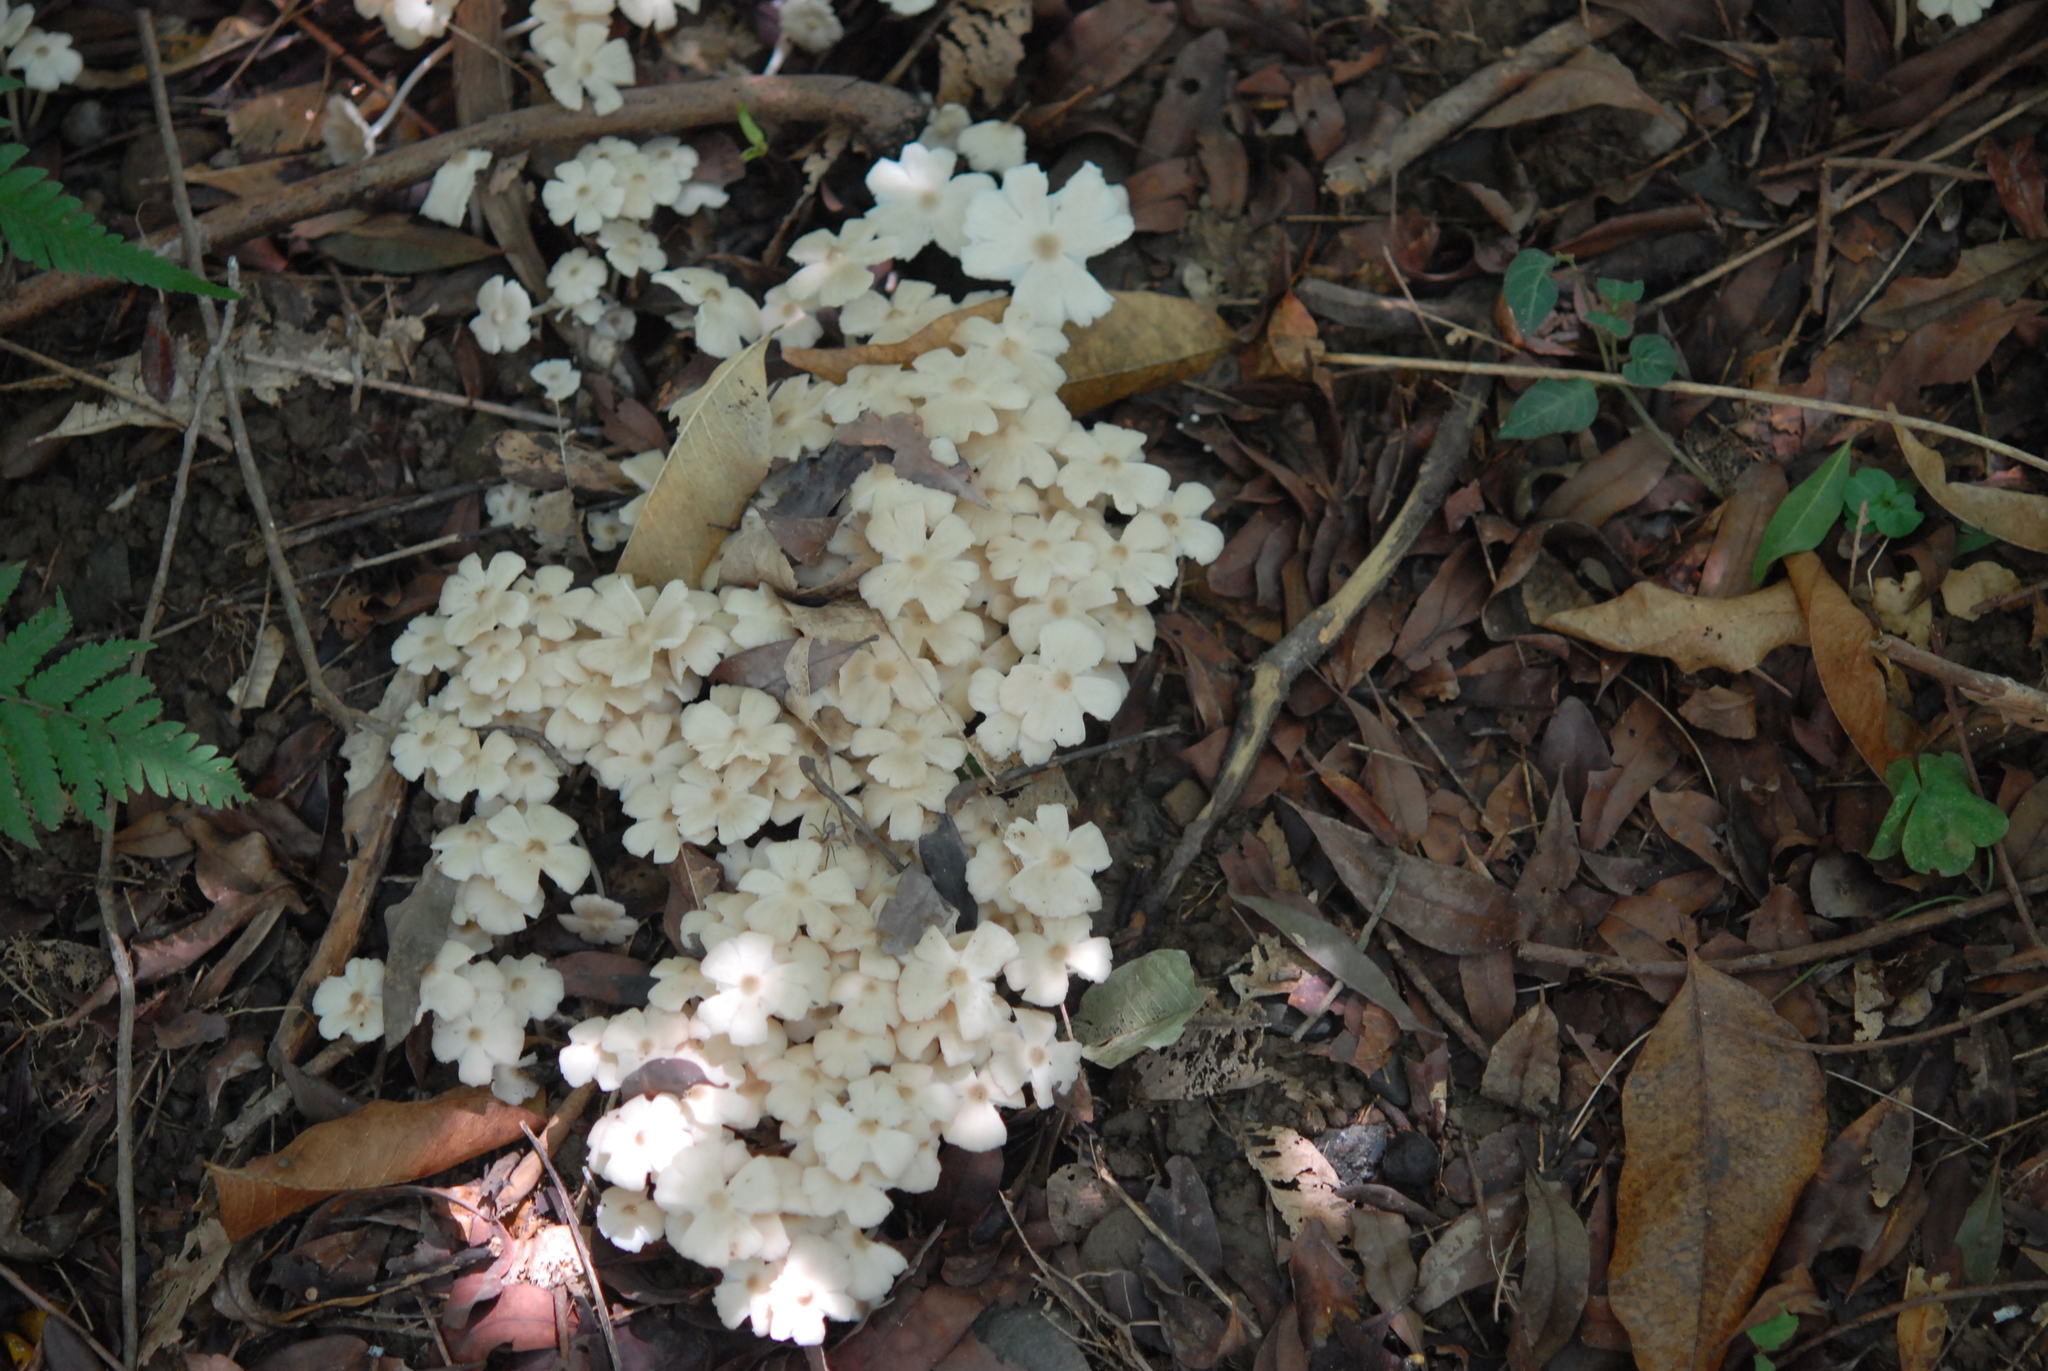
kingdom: Fungi
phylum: Basidiomycota
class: Agaricomycetes
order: Agaricales
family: Lyophyllaceae
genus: Termitomyces
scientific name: Termitomyces microcarpus
